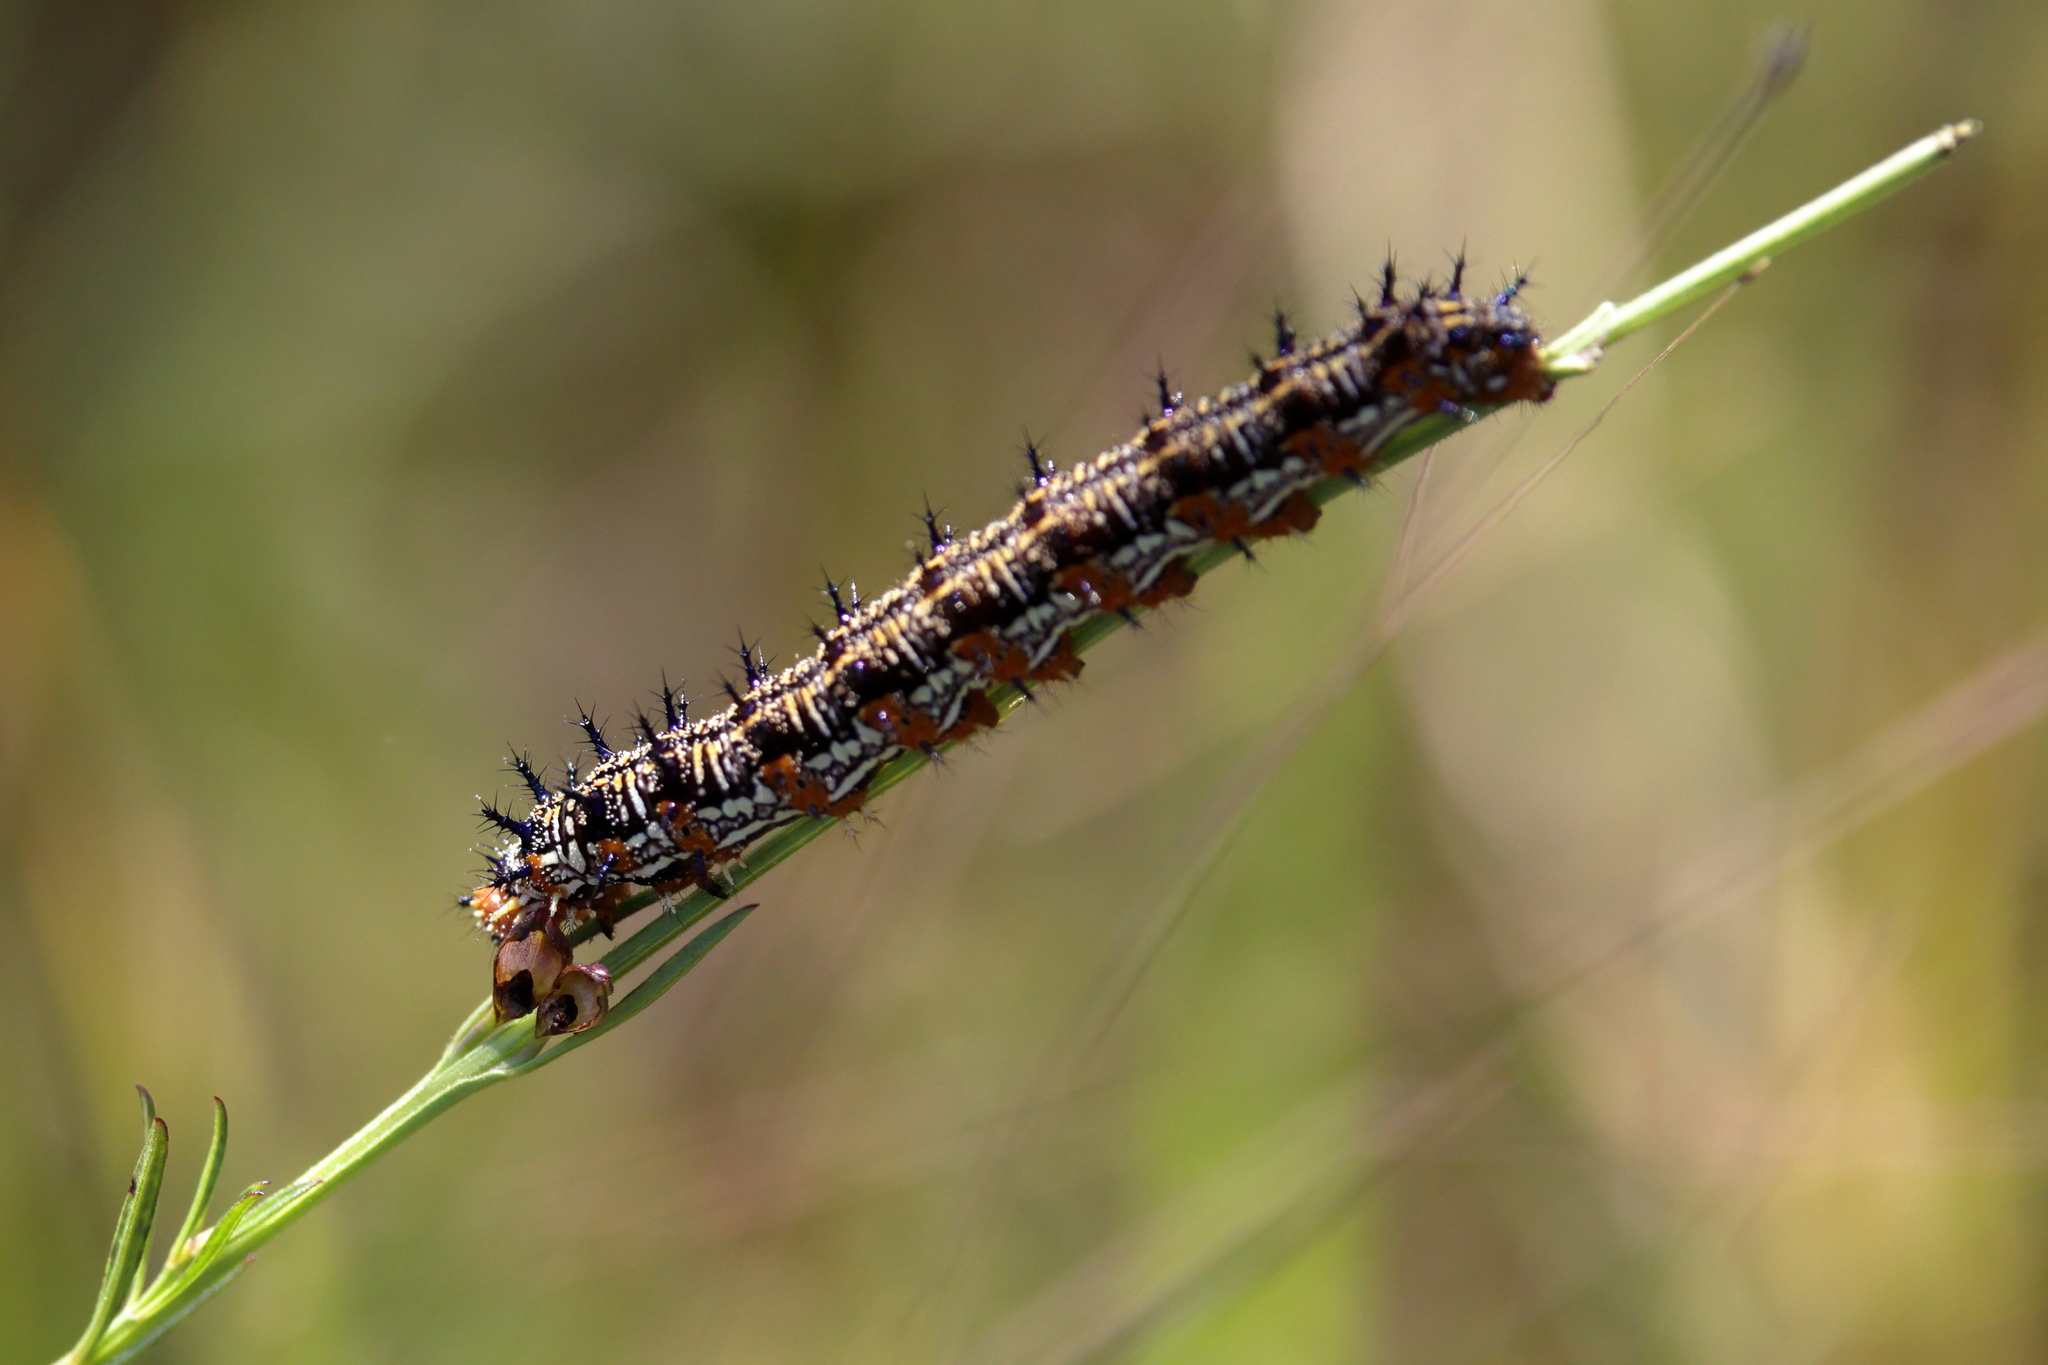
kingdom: Animalia
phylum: Arthropoda
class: Insecta
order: Lepidoptera
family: Nymphalidae
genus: Junonia
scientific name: Junonia coenia
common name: Common buckeye
